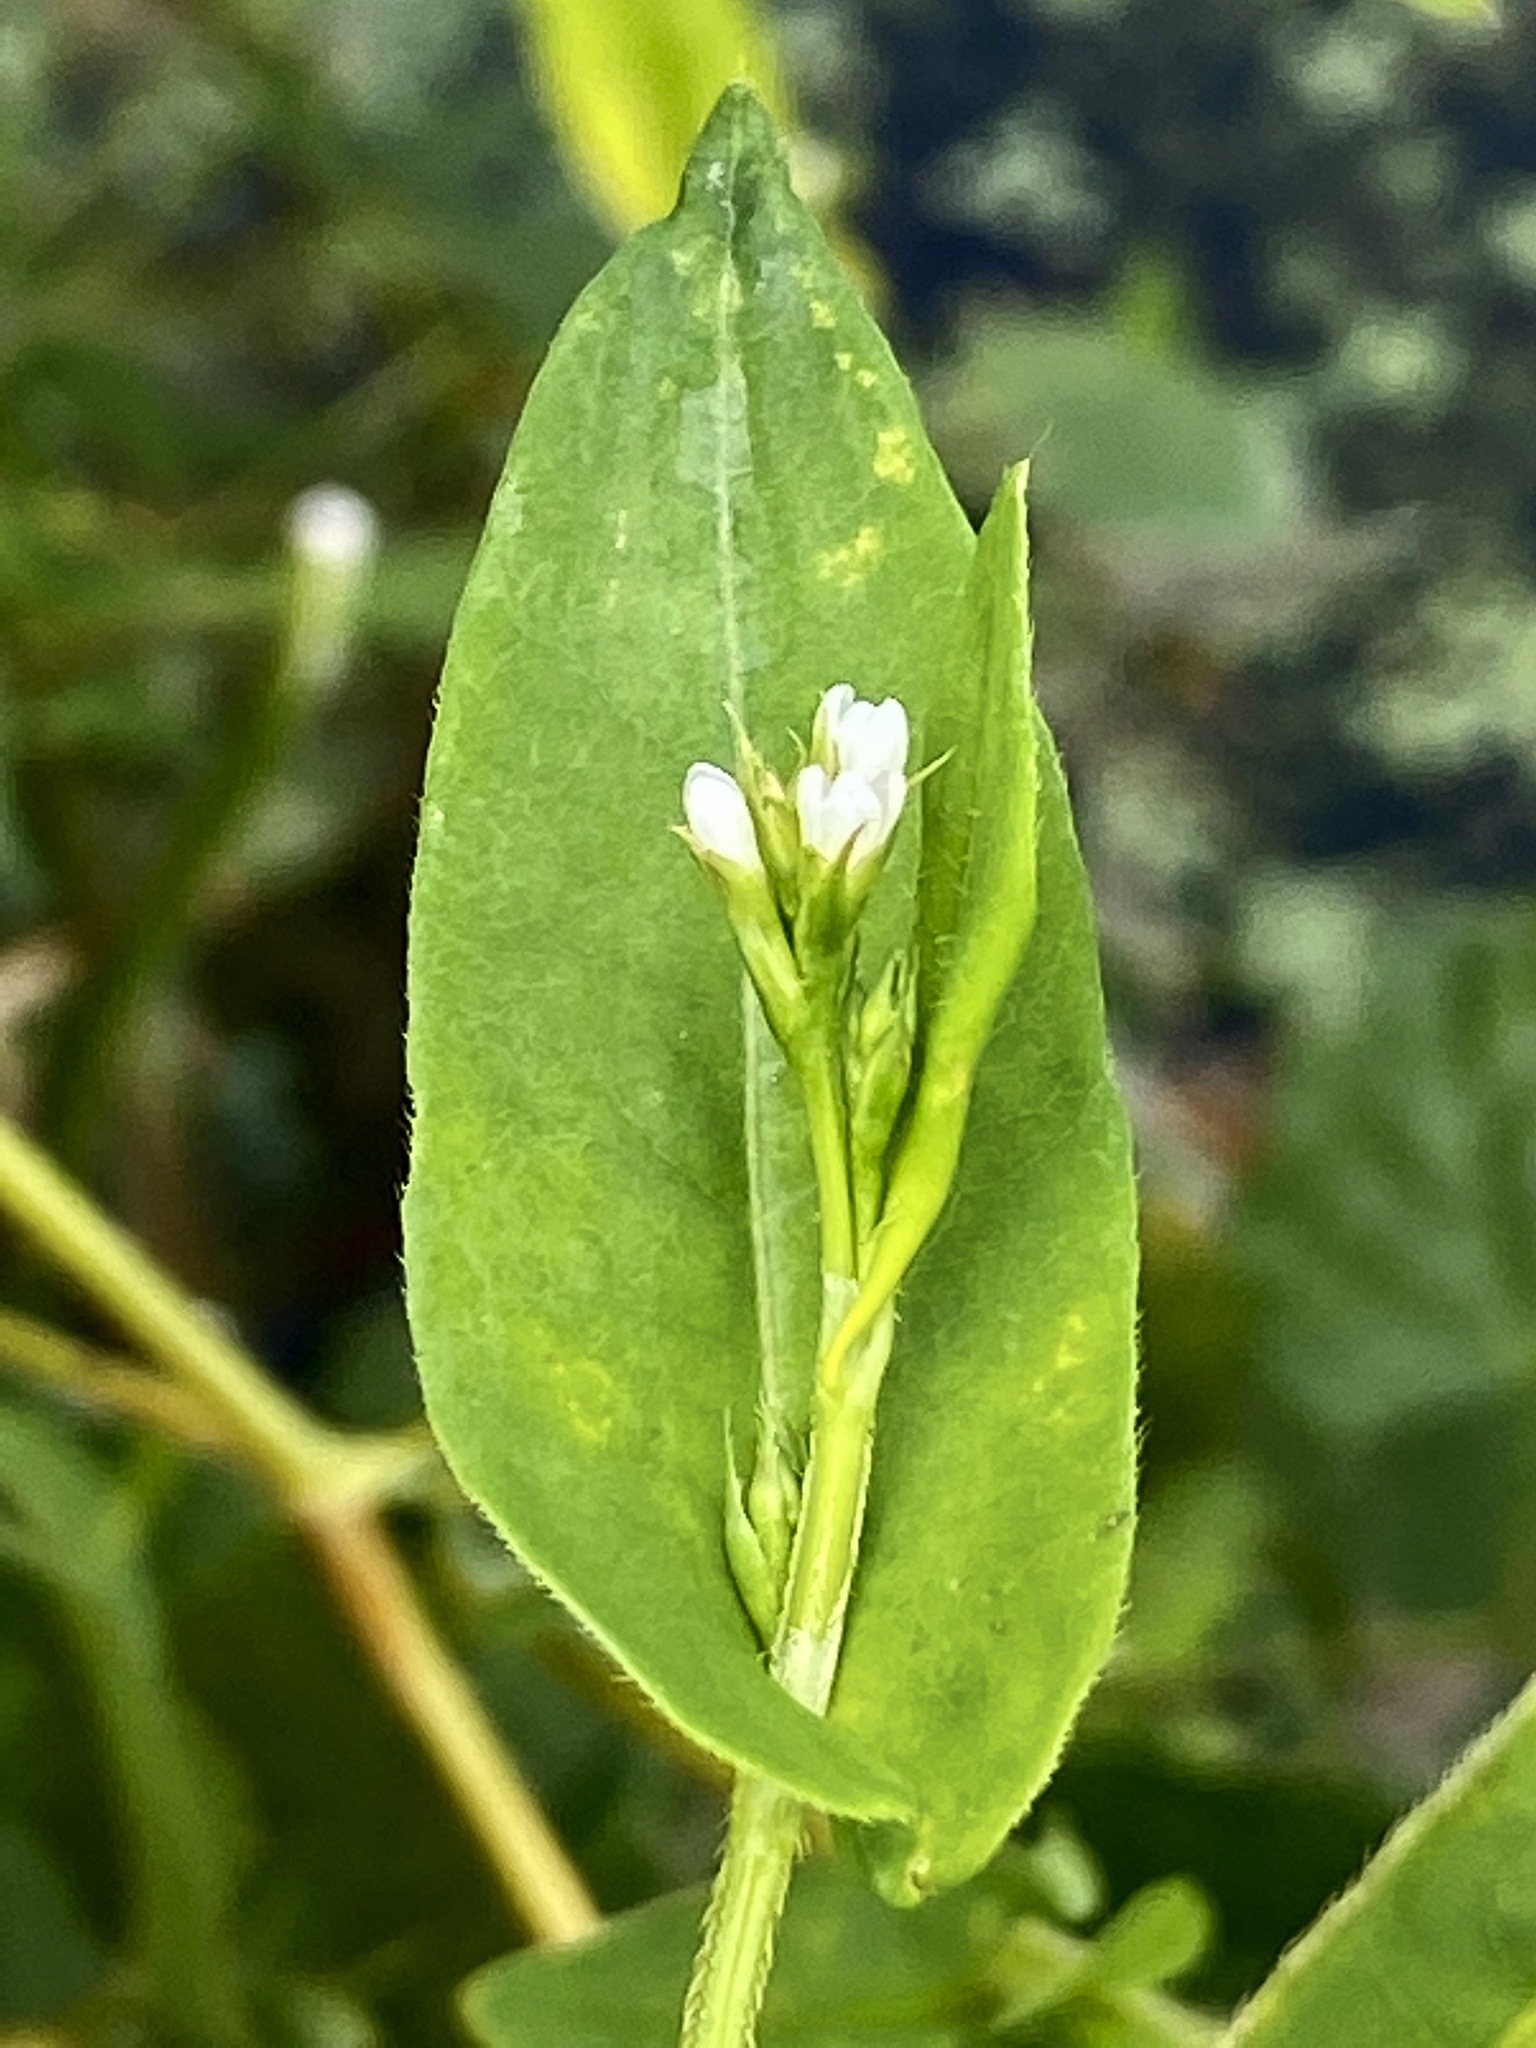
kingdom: Plantae
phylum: Tracheophyta
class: Magnoliopsida
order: Caryophyllales
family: Polygonaceae
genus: Persicaria
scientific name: Persicaria sagittata
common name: American tearthumb
